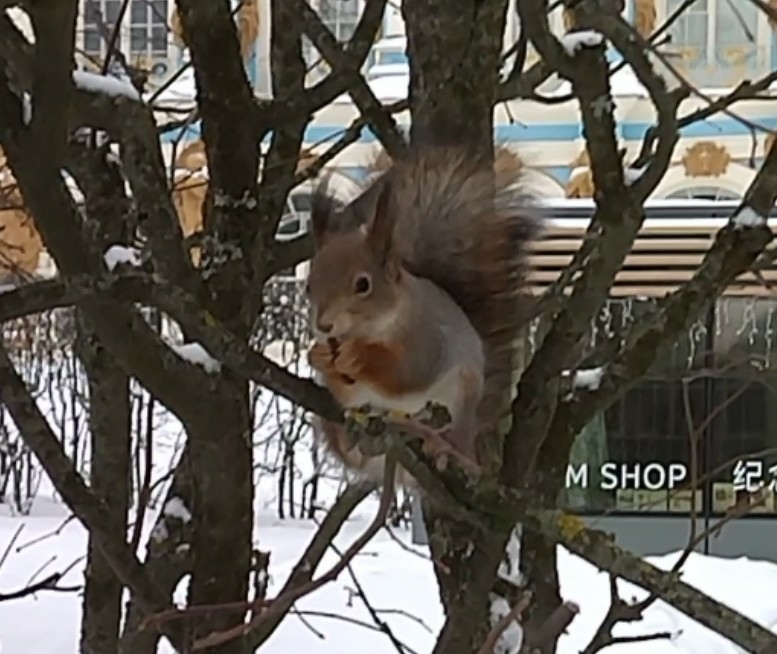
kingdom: Animalia
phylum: Chordata
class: Mammalia
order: Rodentia
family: Sciuridae
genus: Sciurus
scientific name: Sciurus vulgaris
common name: Eurasian red squirrel
